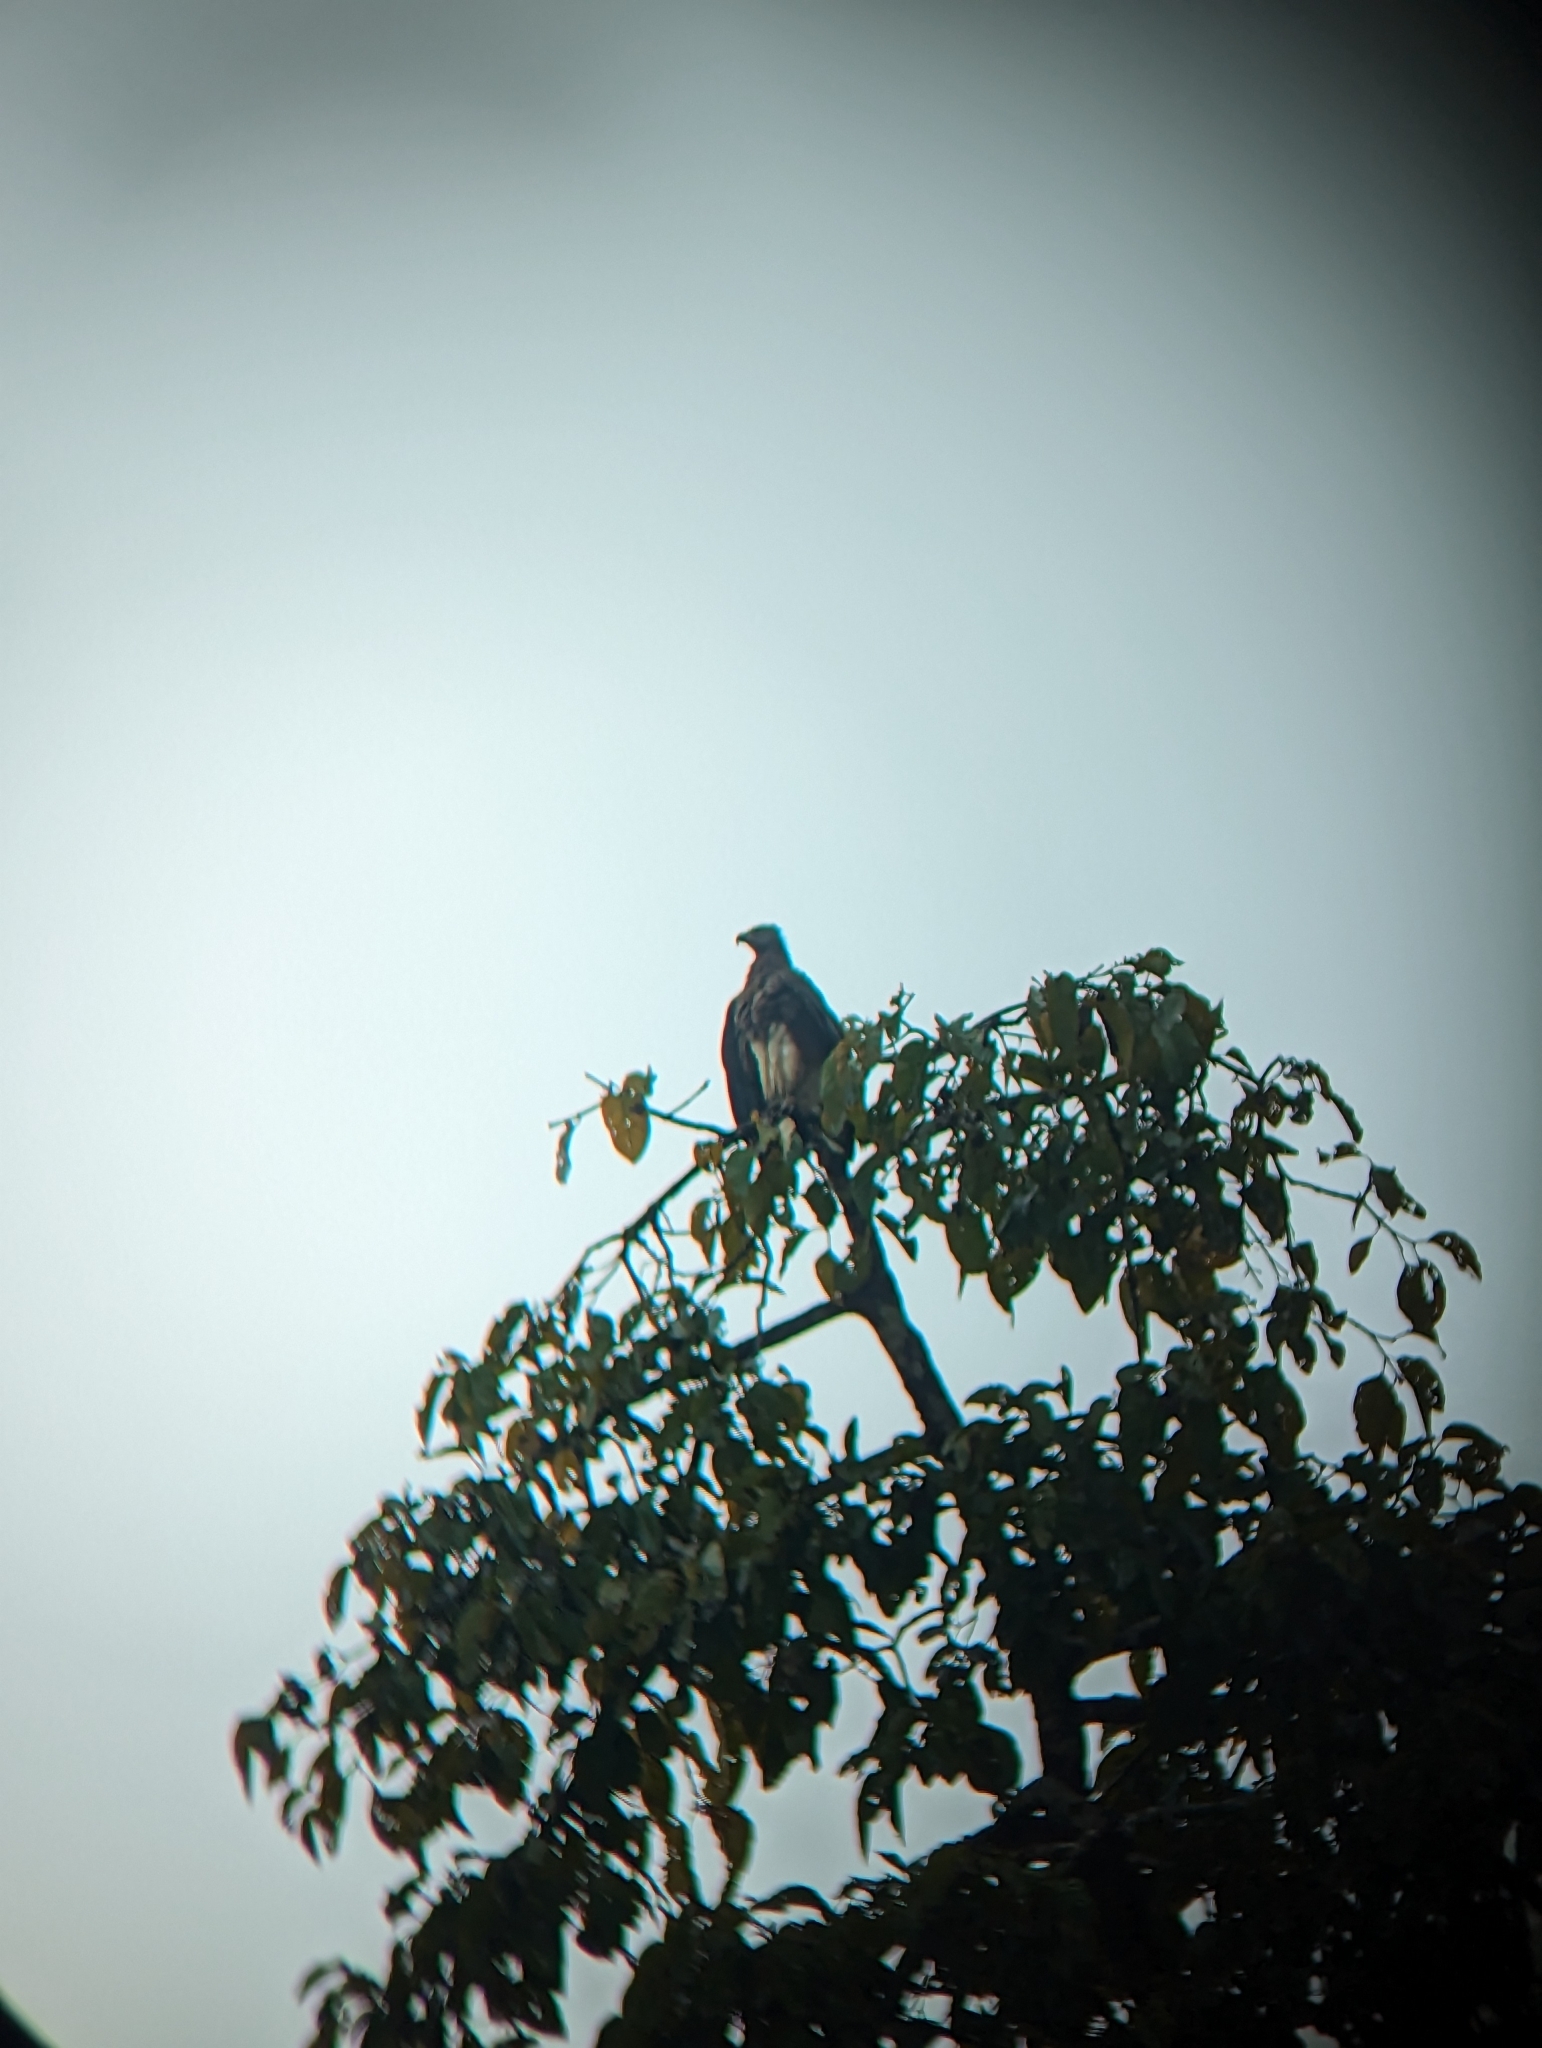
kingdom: Animalia
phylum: Chordata
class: Aves
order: Accipitriformes
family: Accipitridae
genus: Icthyophaga
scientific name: Icthyophaga ichthyaetus
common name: Grey-headed fish eagle
